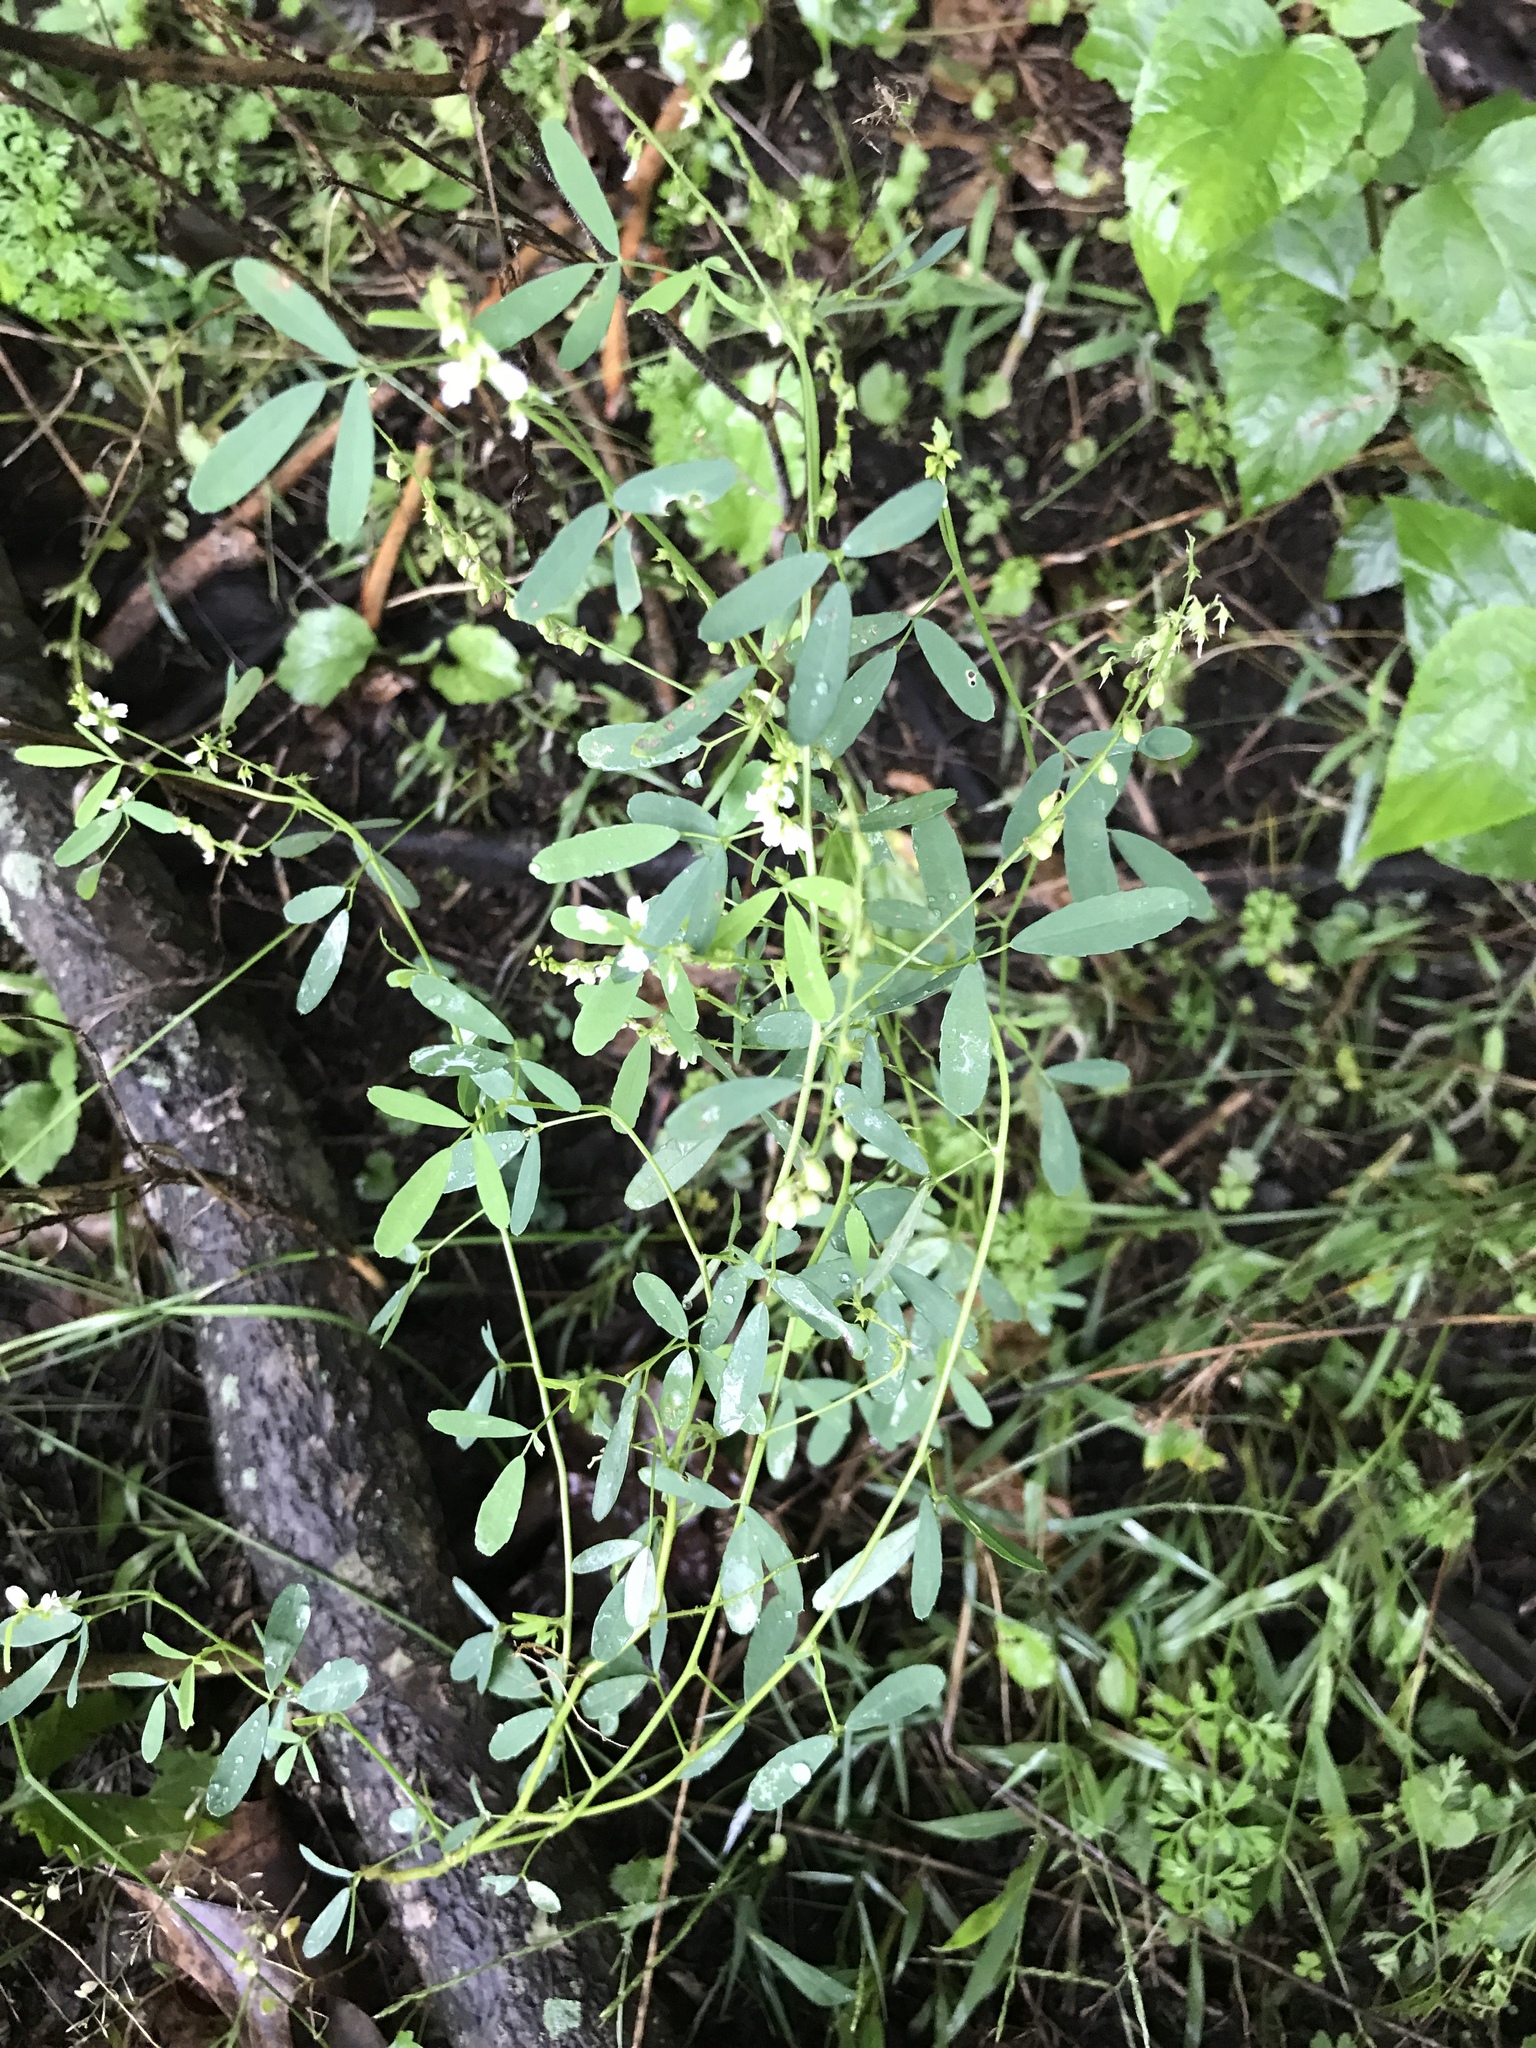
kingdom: Plantae
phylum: Tracheophyta
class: Magnoliopsida
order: Fabales
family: Fabaceae
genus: Melilotus
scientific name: Melilotus albus
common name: White melilot
